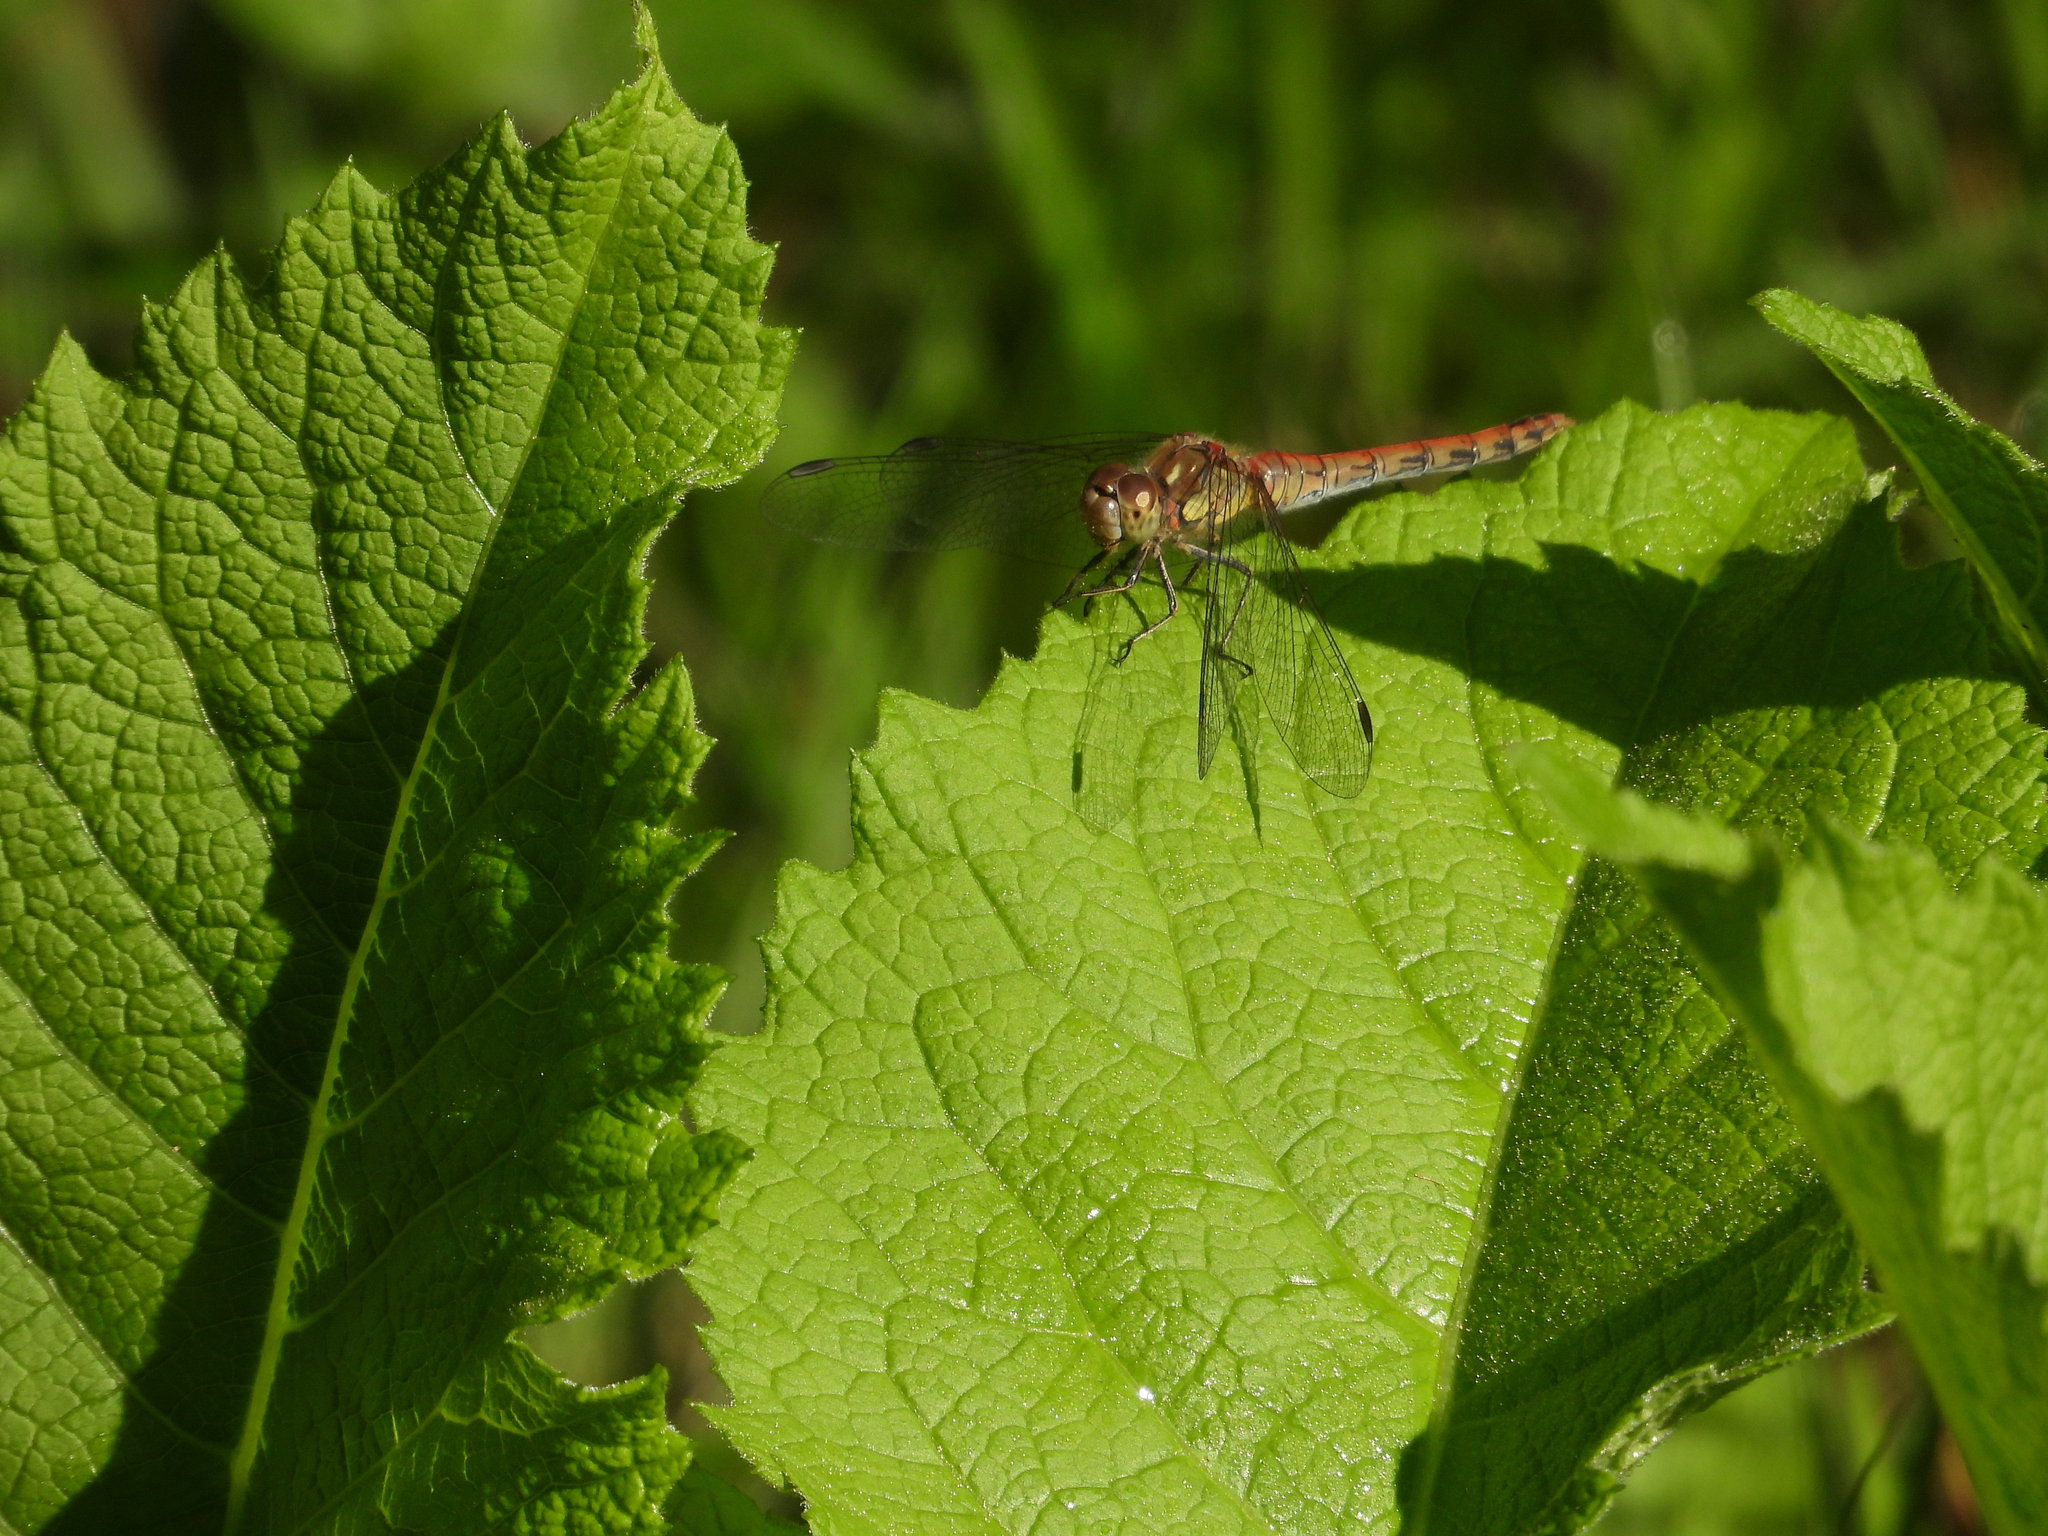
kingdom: Animalia
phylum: Arthropoda
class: Insecta
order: Odonata
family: Libellulidae
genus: Sympetrum
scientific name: Sympetrum striolatum
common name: Common darter
